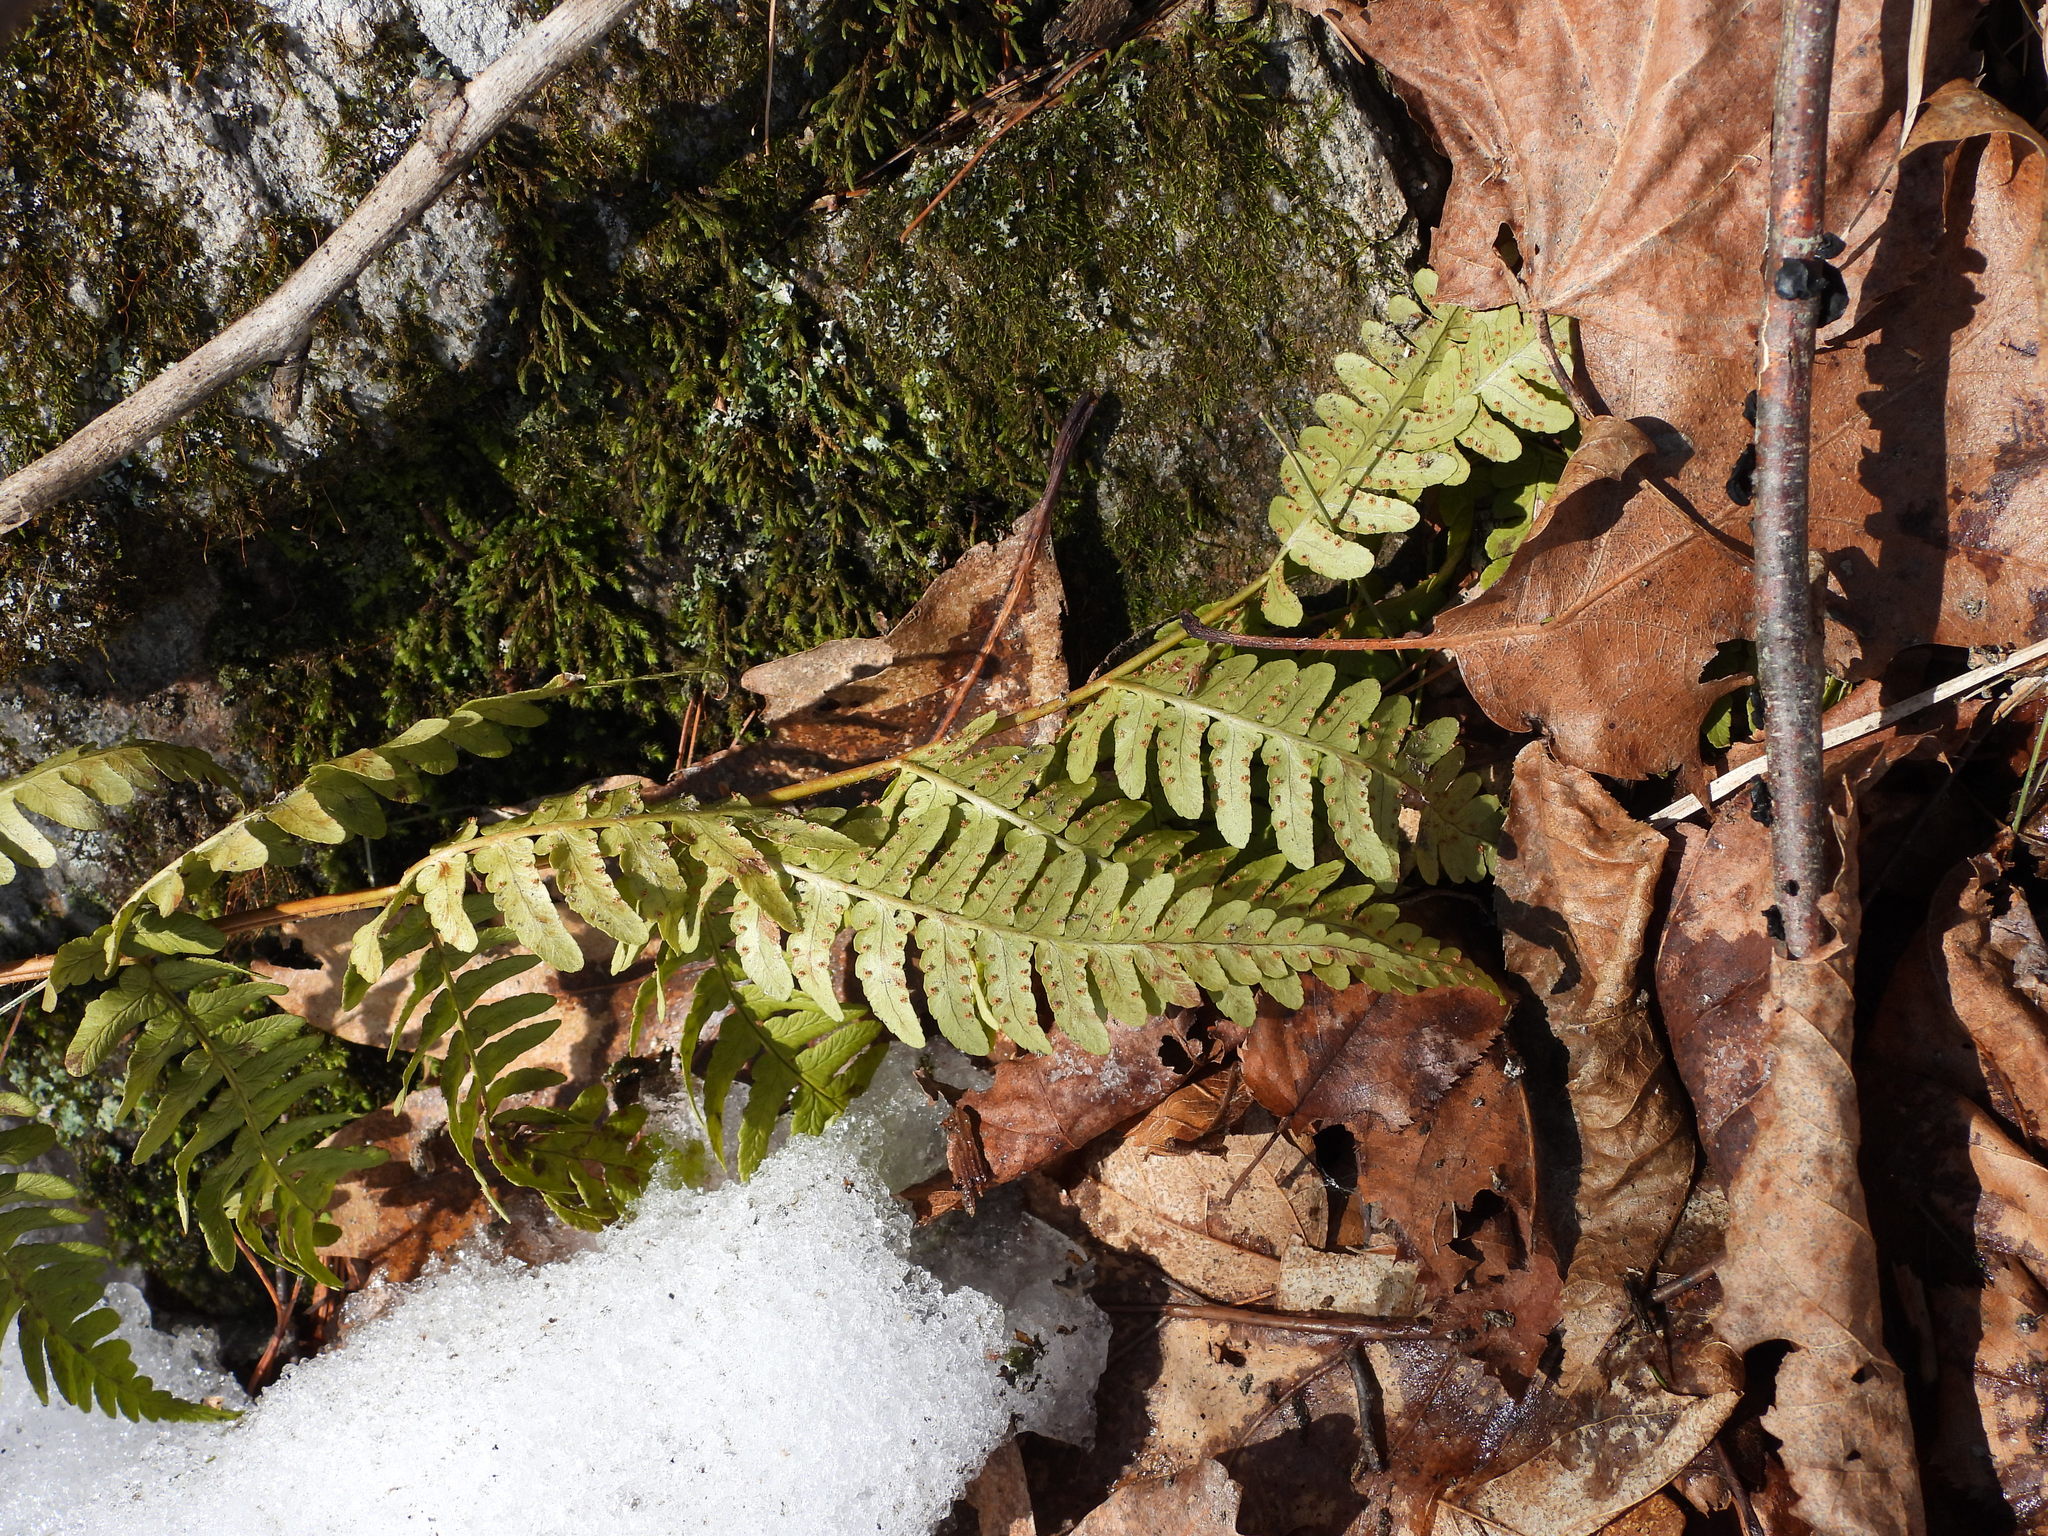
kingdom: Plantae
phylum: Tracheophyta
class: Polypodiopsida
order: Polypodiales
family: Dryopteridaceae
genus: Dryopteris
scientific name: Dryopteris marginalis
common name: Marginal wood fern
